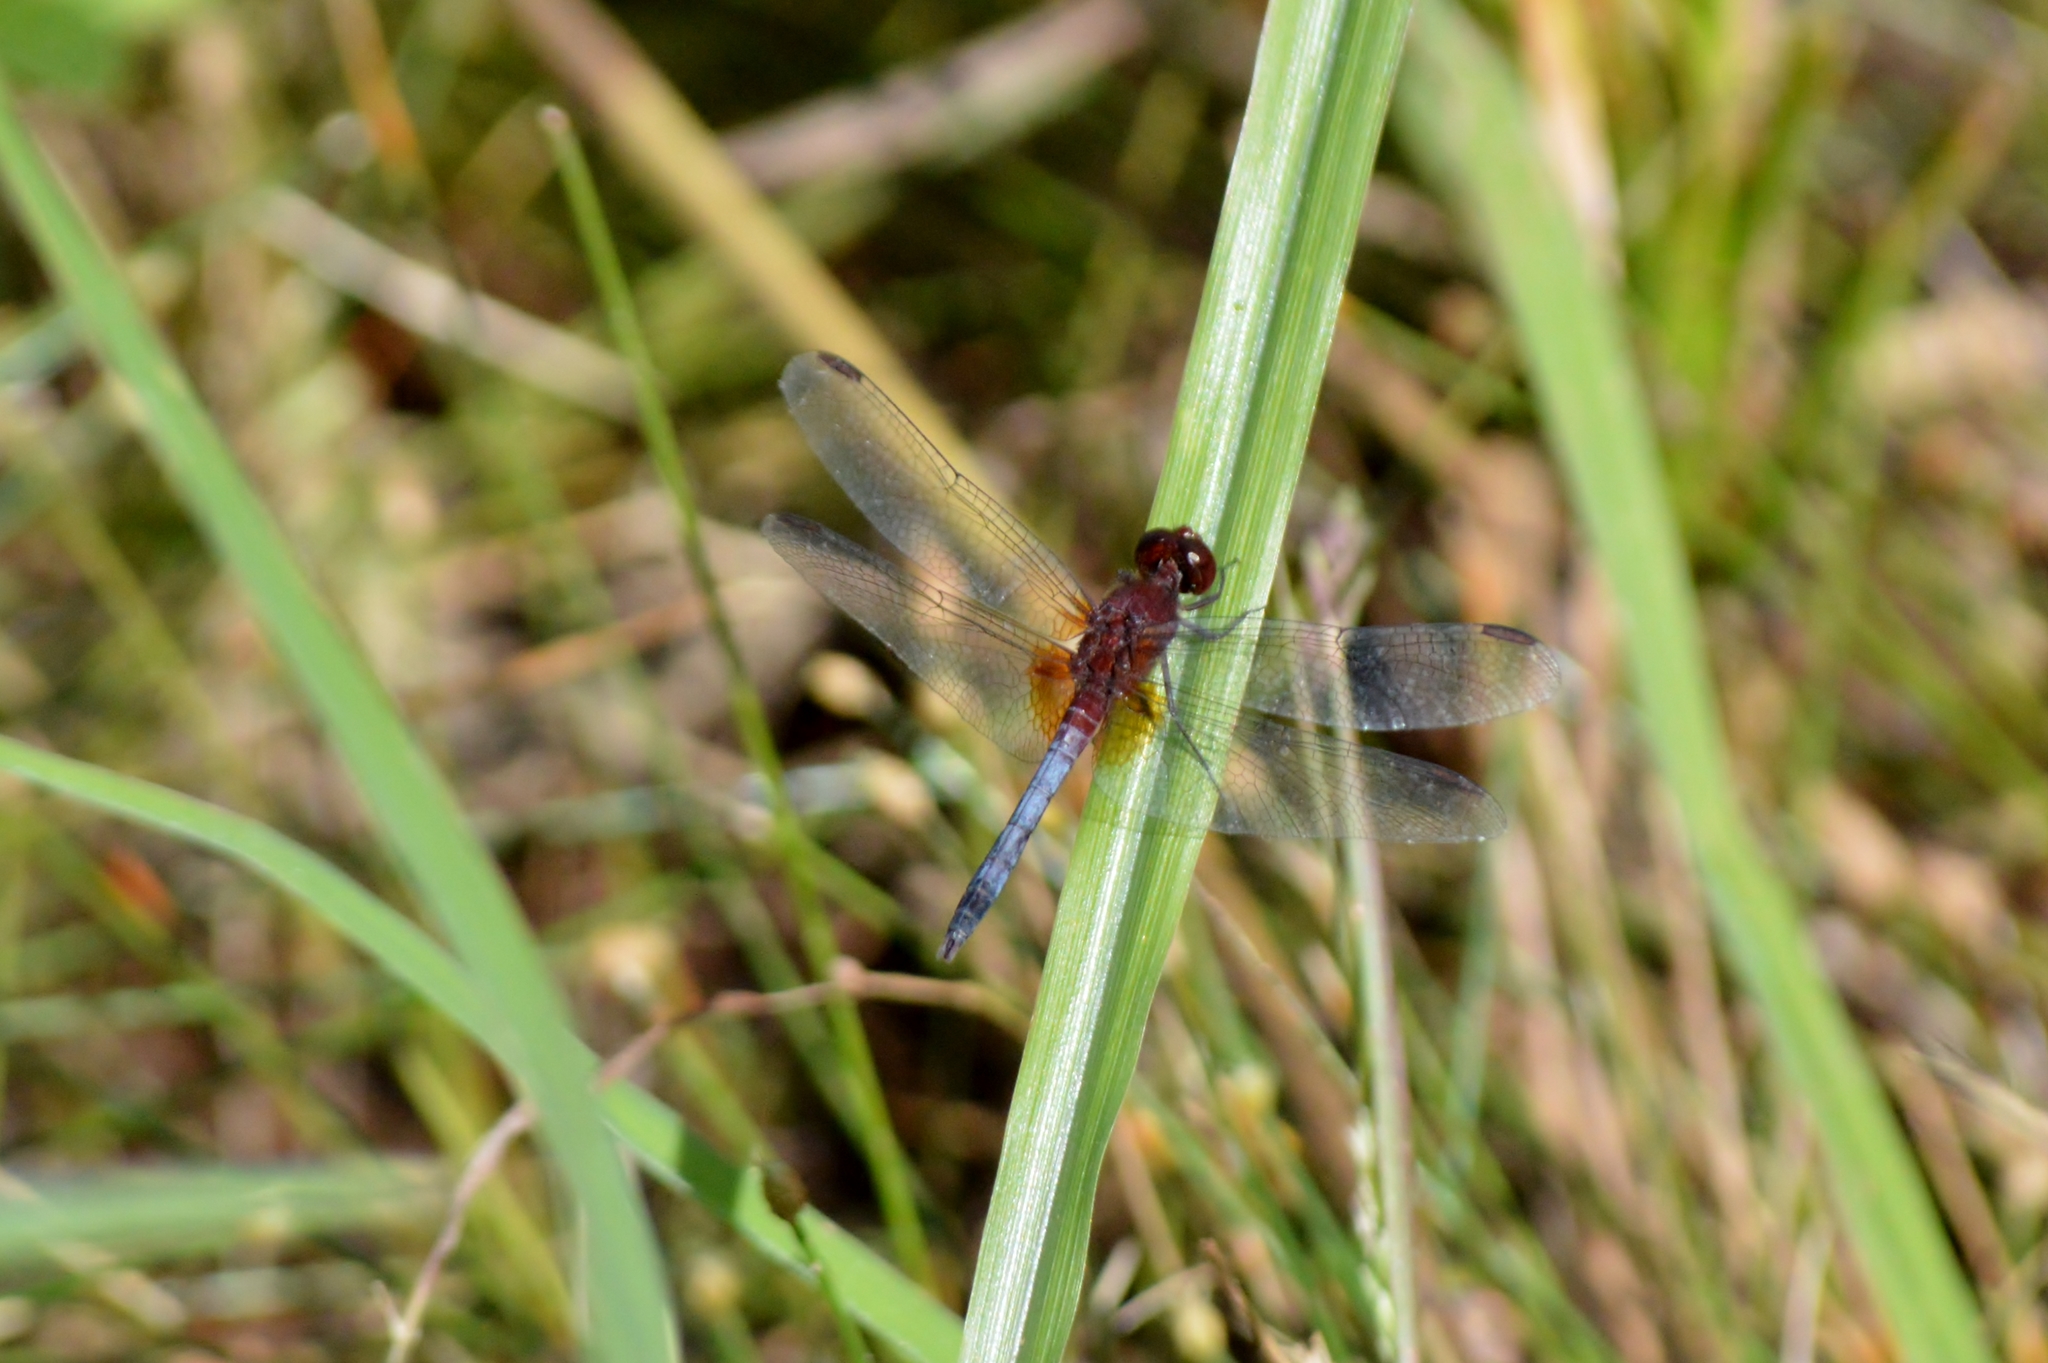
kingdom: Animalia
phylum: Arthropoda
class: Insecta
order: Odonata
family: Libellulidae
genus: Erythrodiplax
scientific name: Erythrodiplax fusca
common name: Red-faced dragonlet
